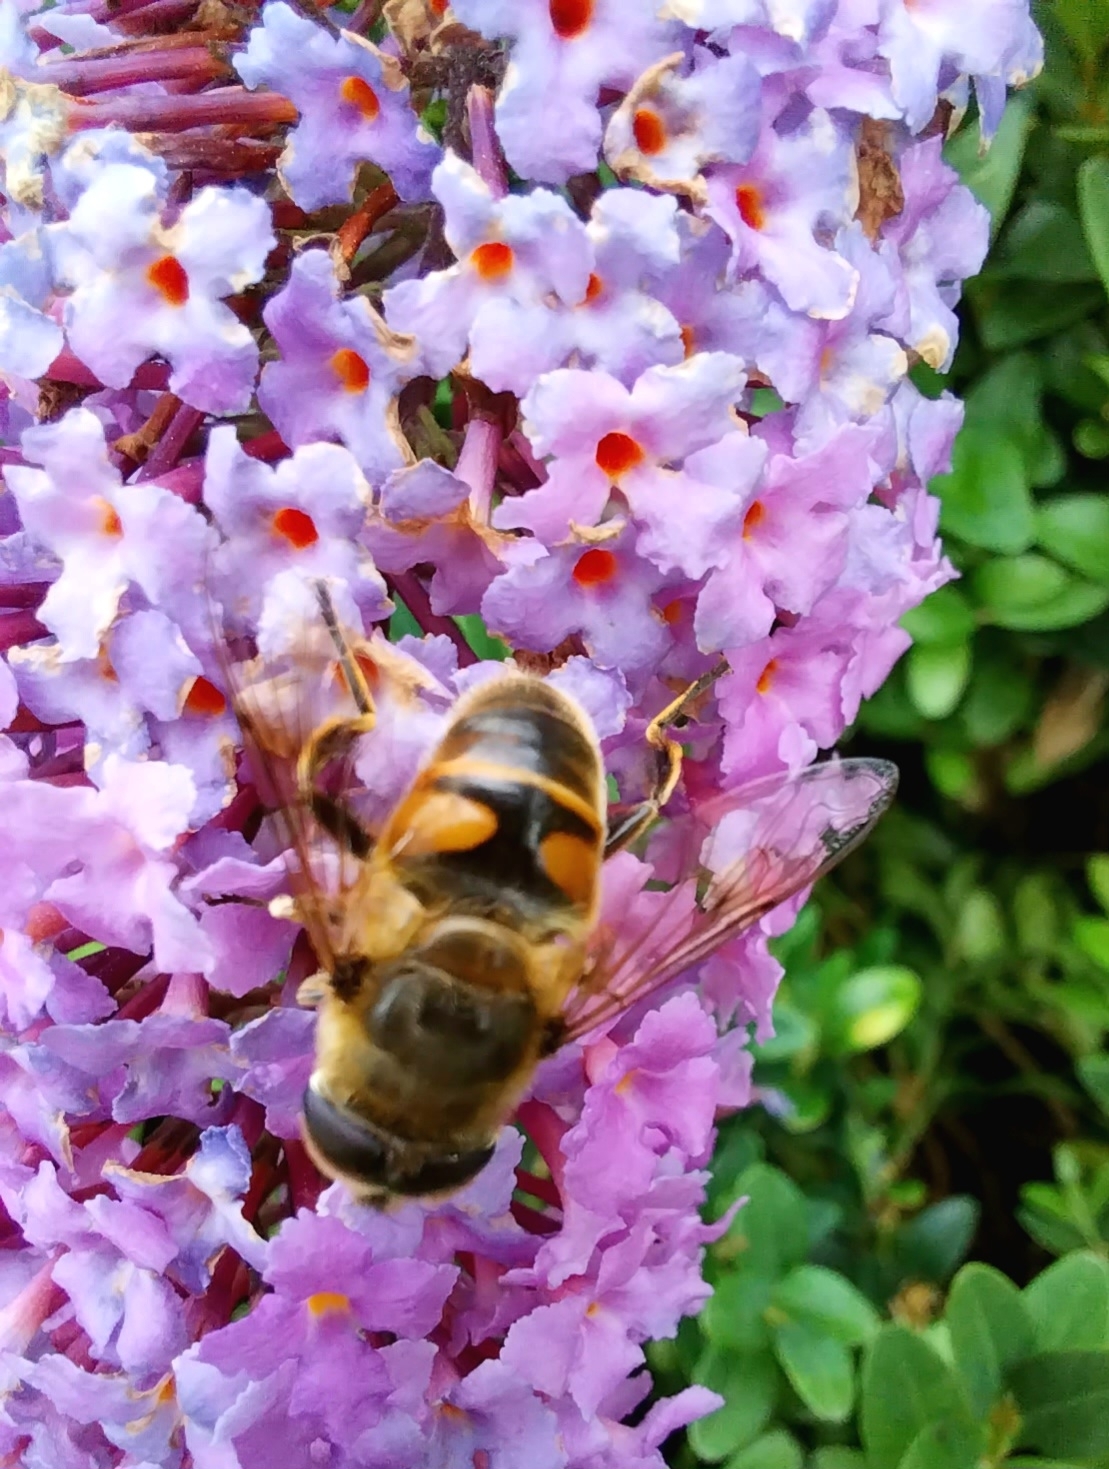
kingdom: Animalia
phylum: Arthropoda
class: Insecta
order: Diptera
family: Syrphidae
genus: Eristalis
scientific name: Eristalis tenax
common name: Drone fly
